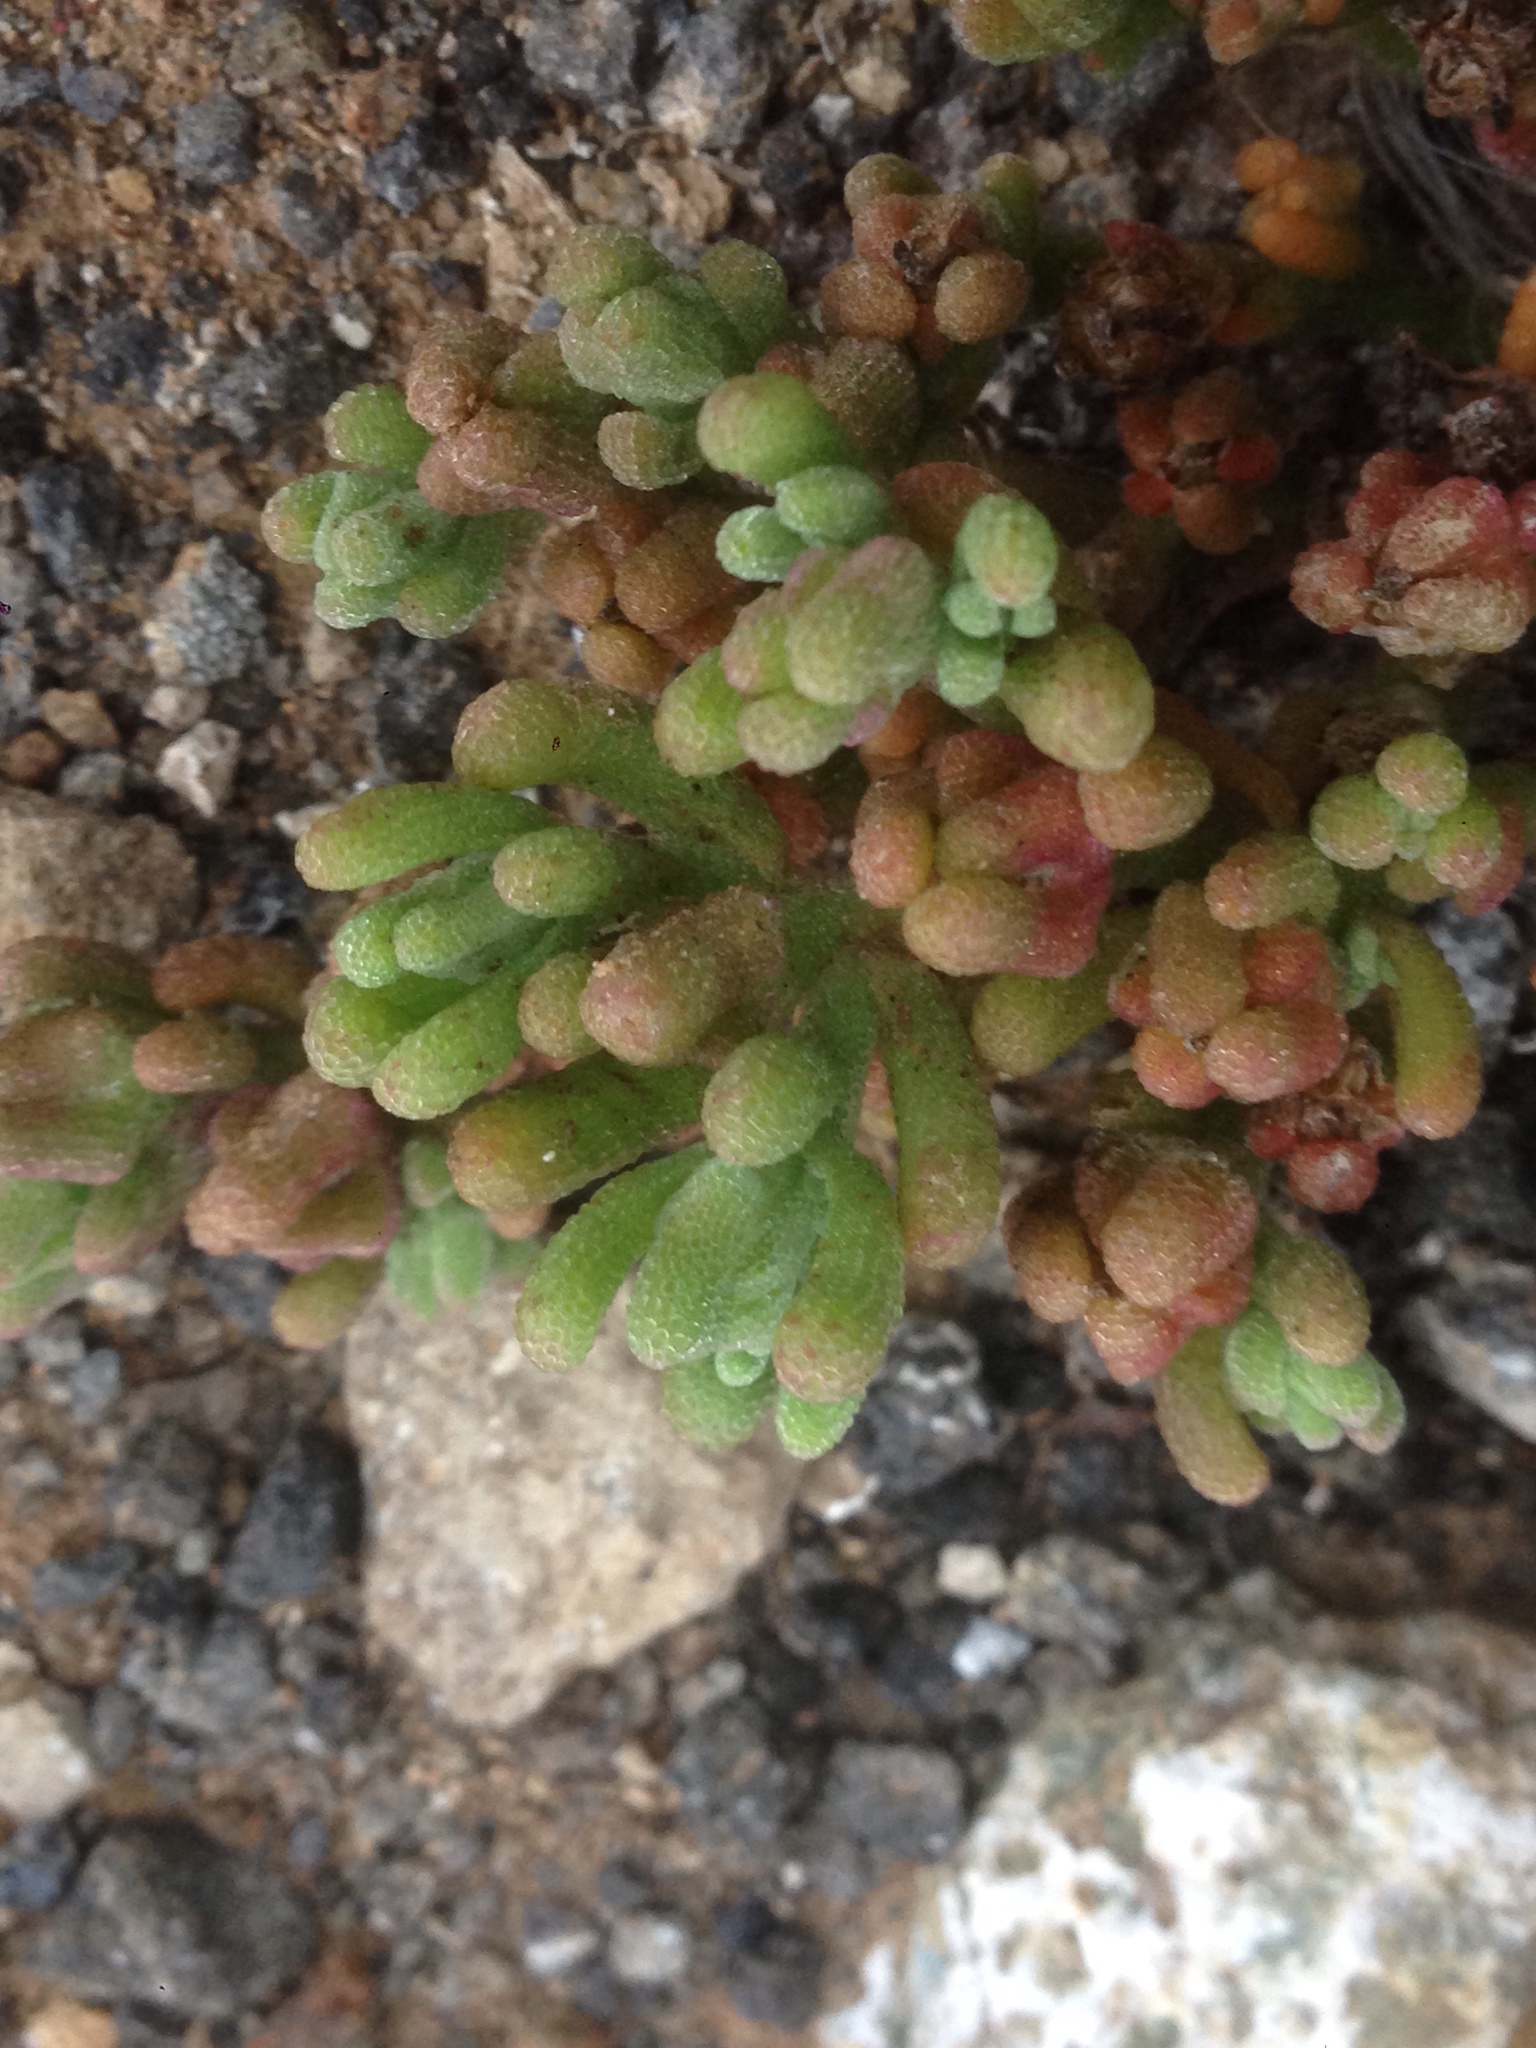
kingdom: Plantae
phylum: Tracheophyta
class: Magnoliopsida
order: Caryophyllales
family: Aizoaceae
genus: Mesembryanthemum
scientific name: Mesembryanthemum nodiflorum
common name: Slenderleaf iceplant
